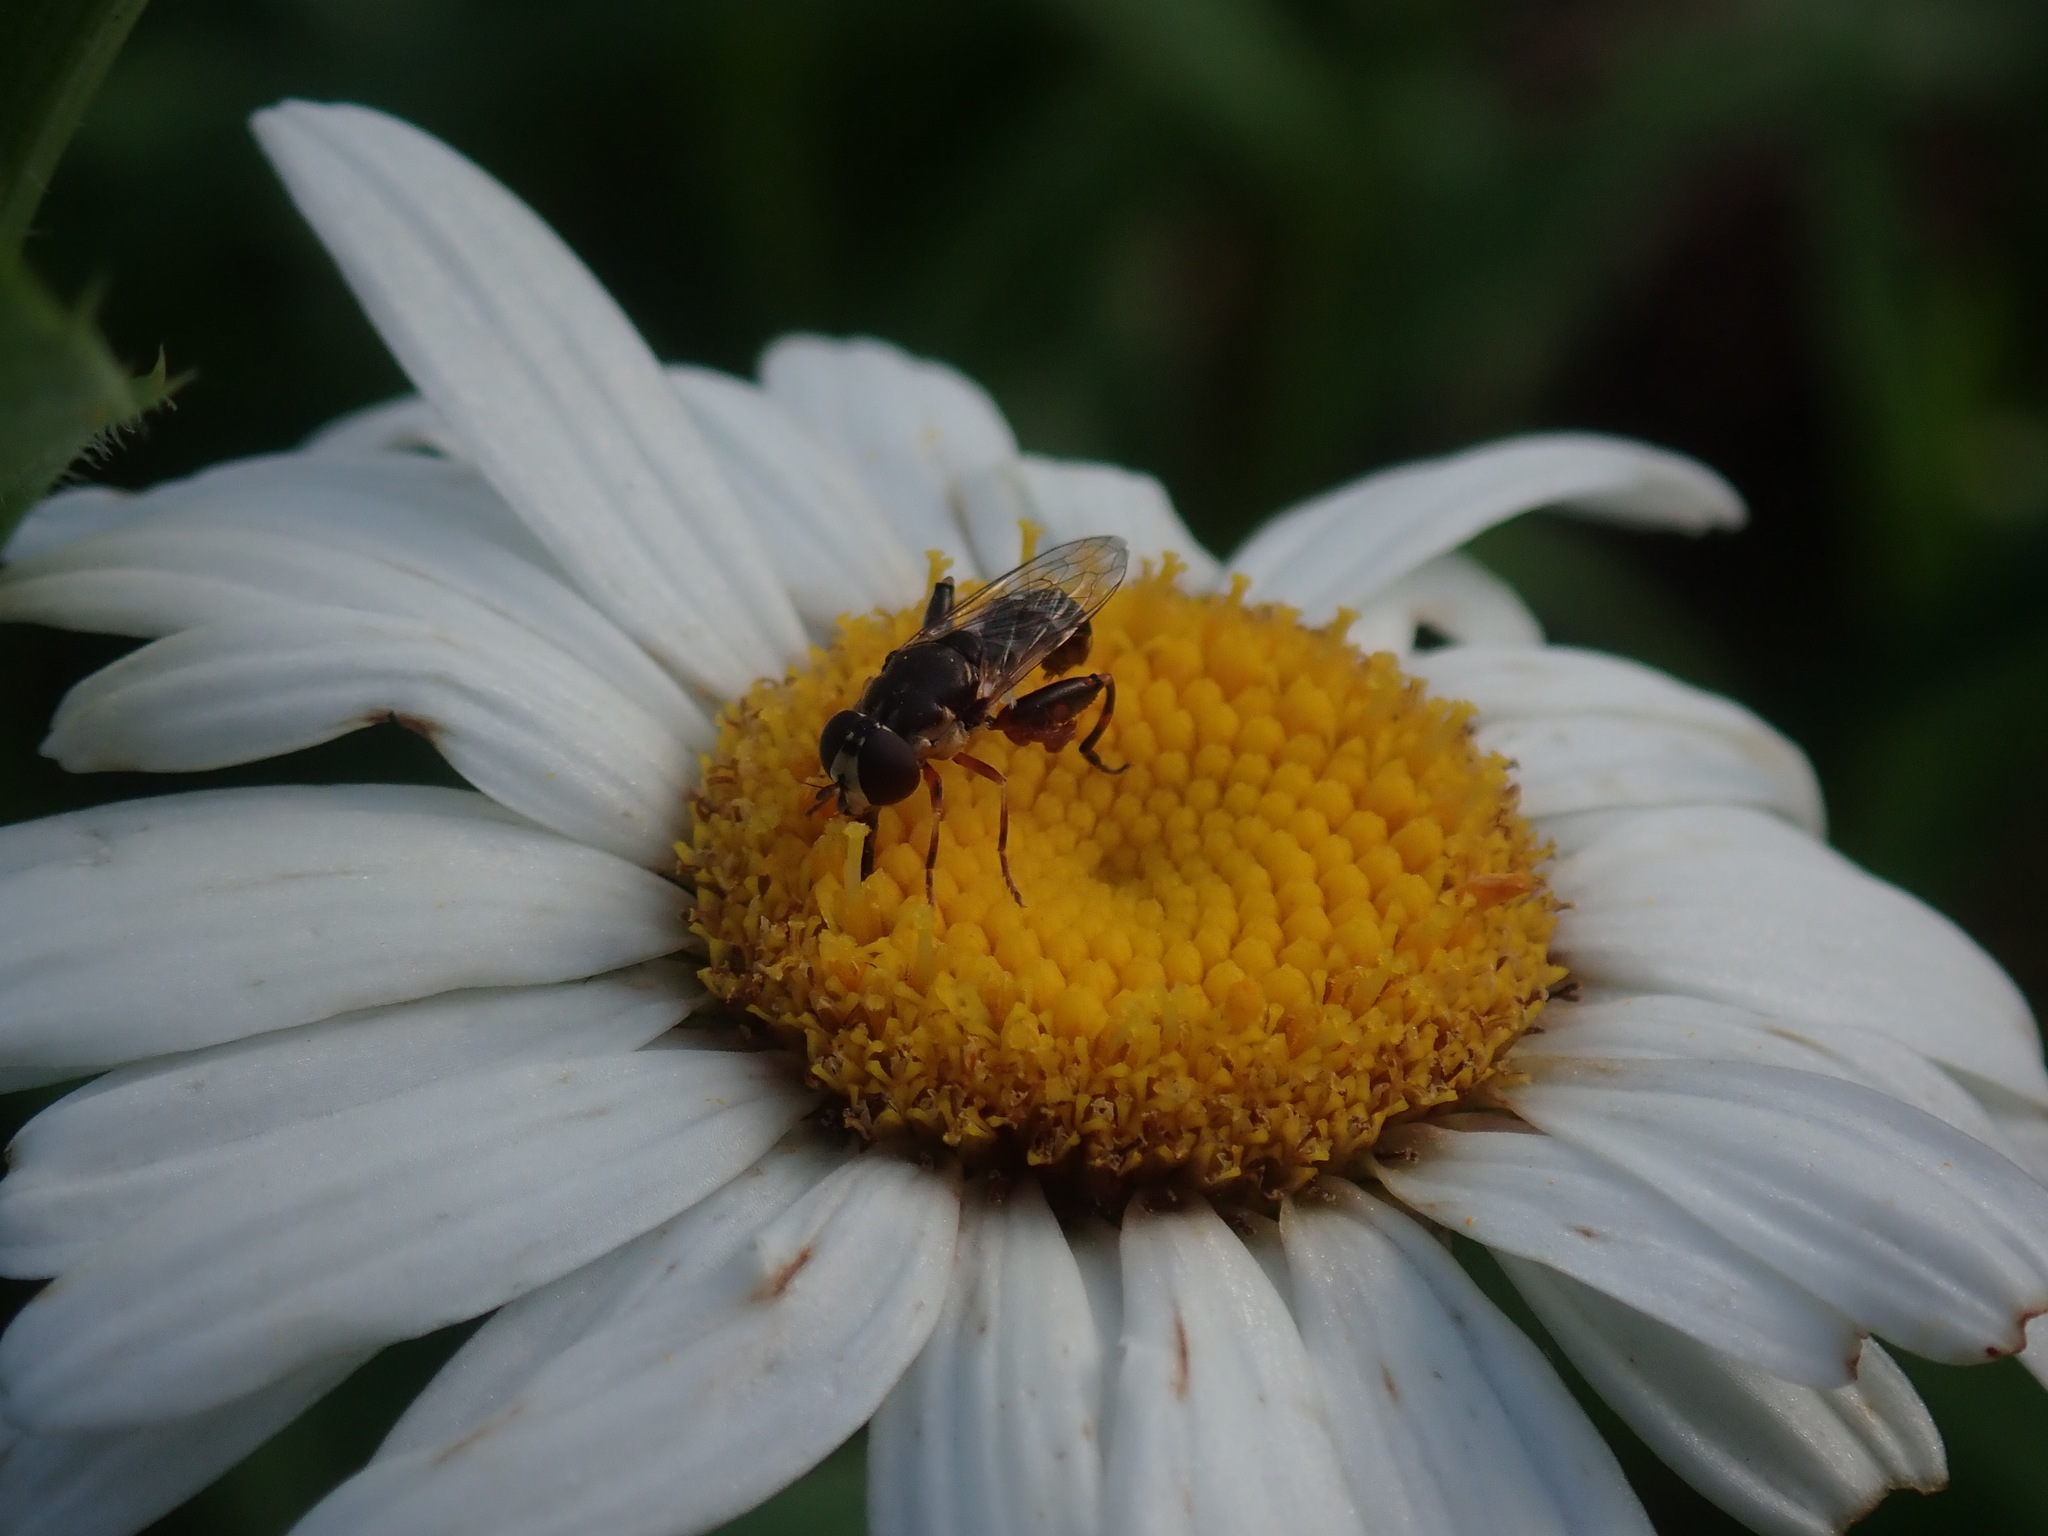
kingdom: Animalia
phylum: Arthropoda
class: Insecta
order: Diptera
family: Syrphidae
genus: Syritta
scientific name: Syritta pipiens
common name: Hover fly
